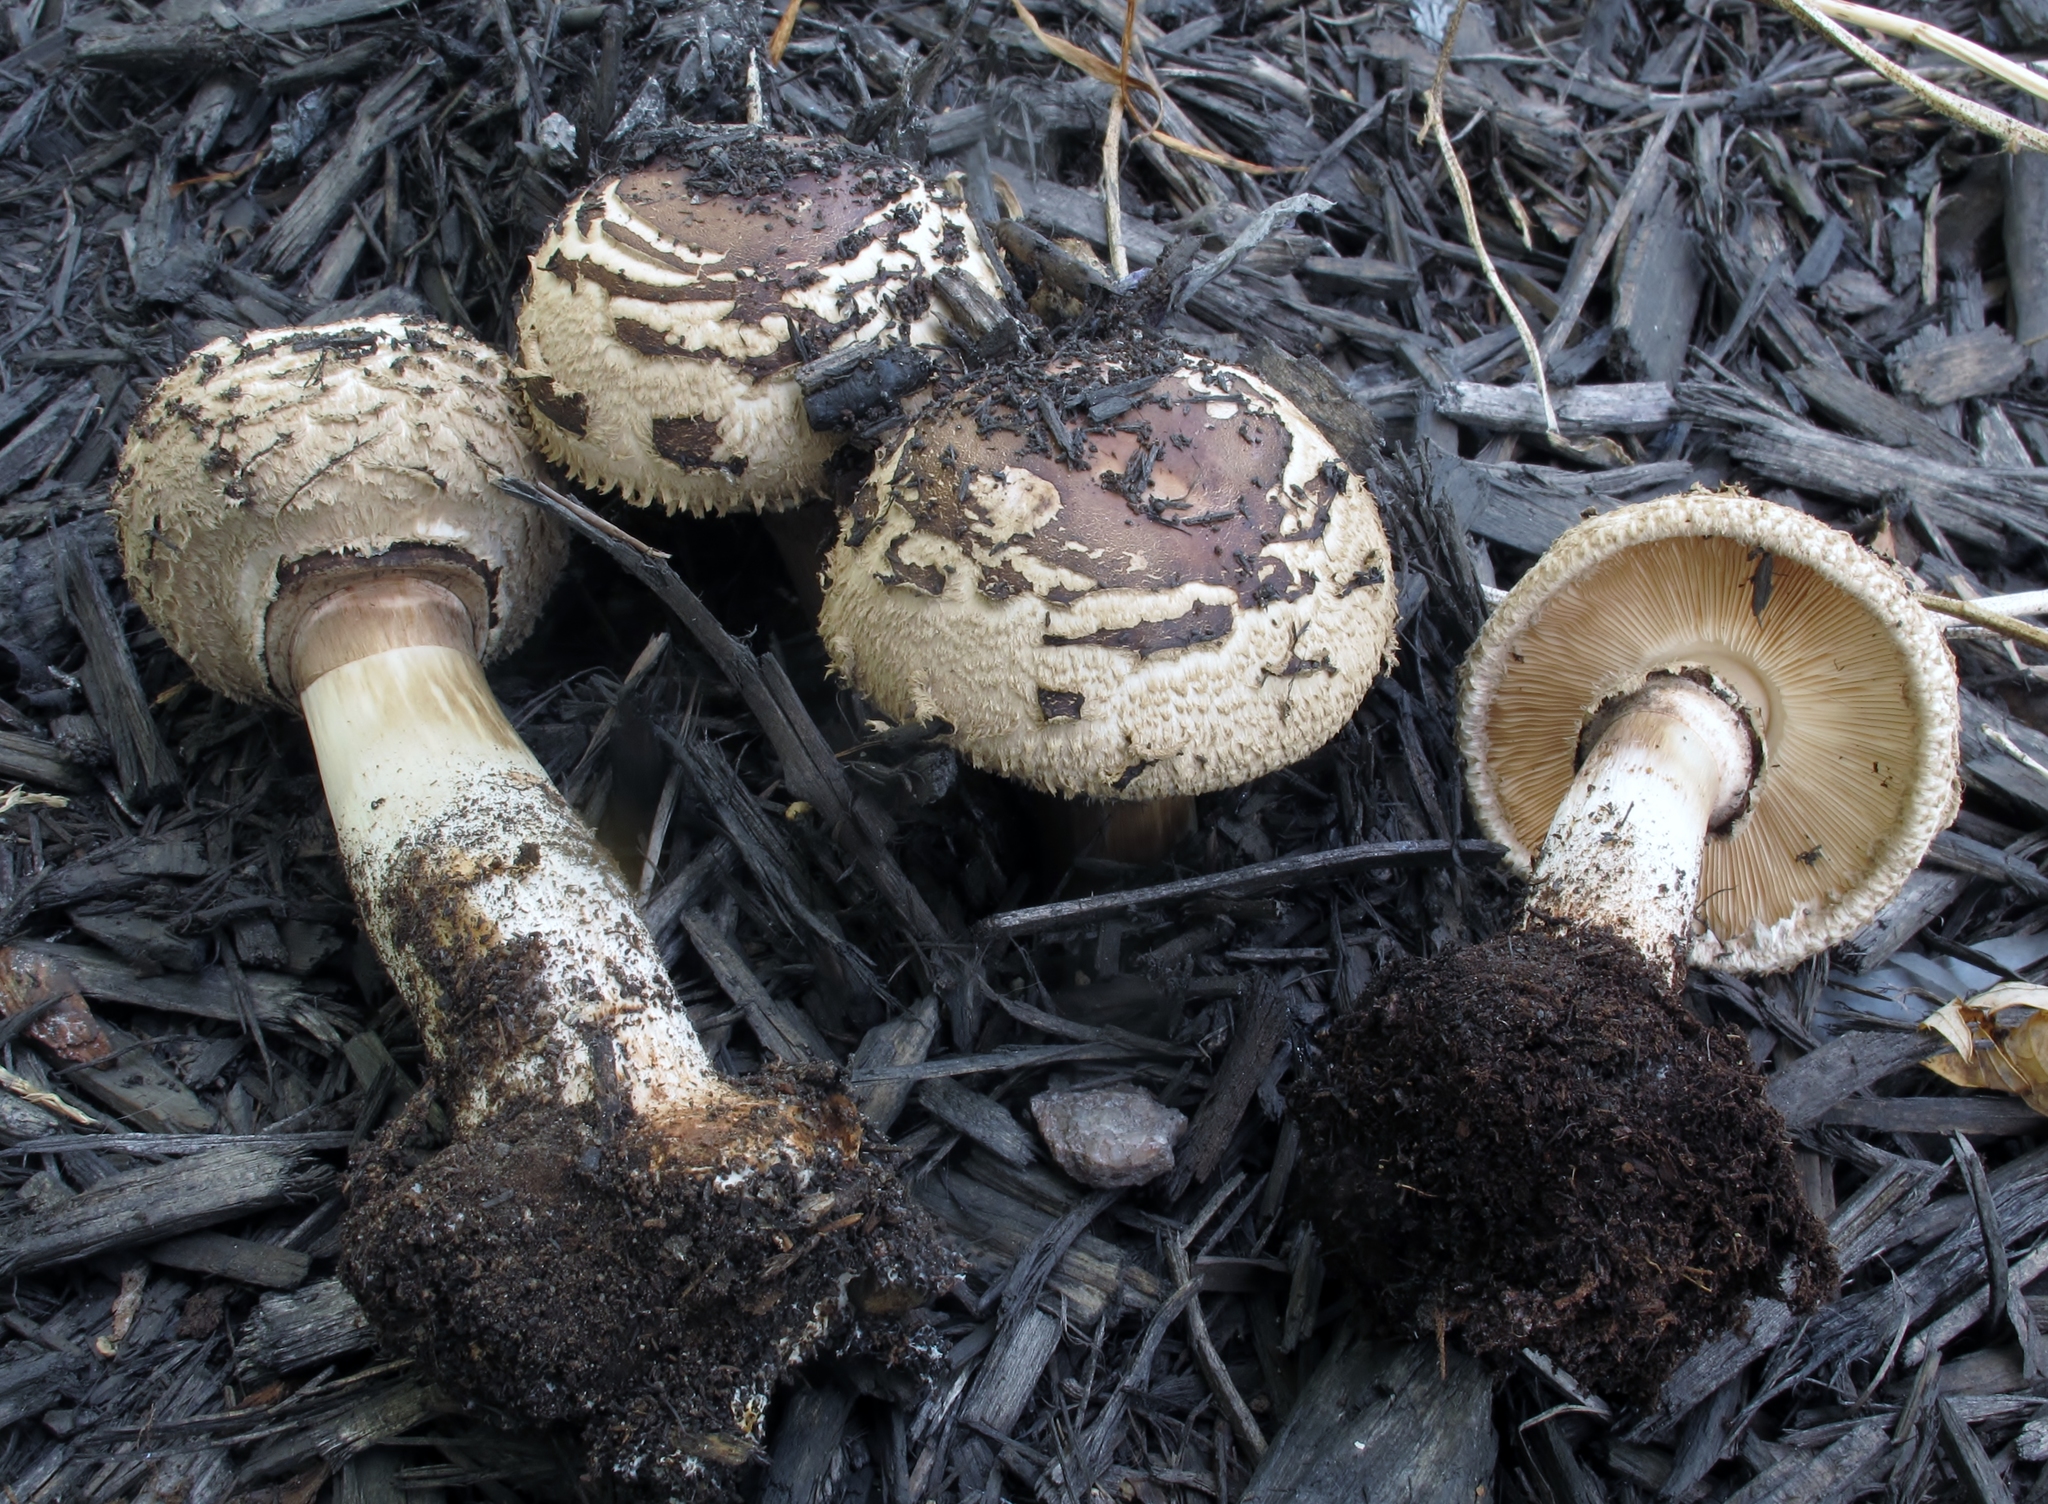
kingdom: Fungi
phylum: Basidiomycota
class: Agaricomycetes
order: Agaricales
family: Agaricaceae
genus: Chlorophyllum
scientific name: Chlorophyllum rhacodes
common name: Shaggy parasol
